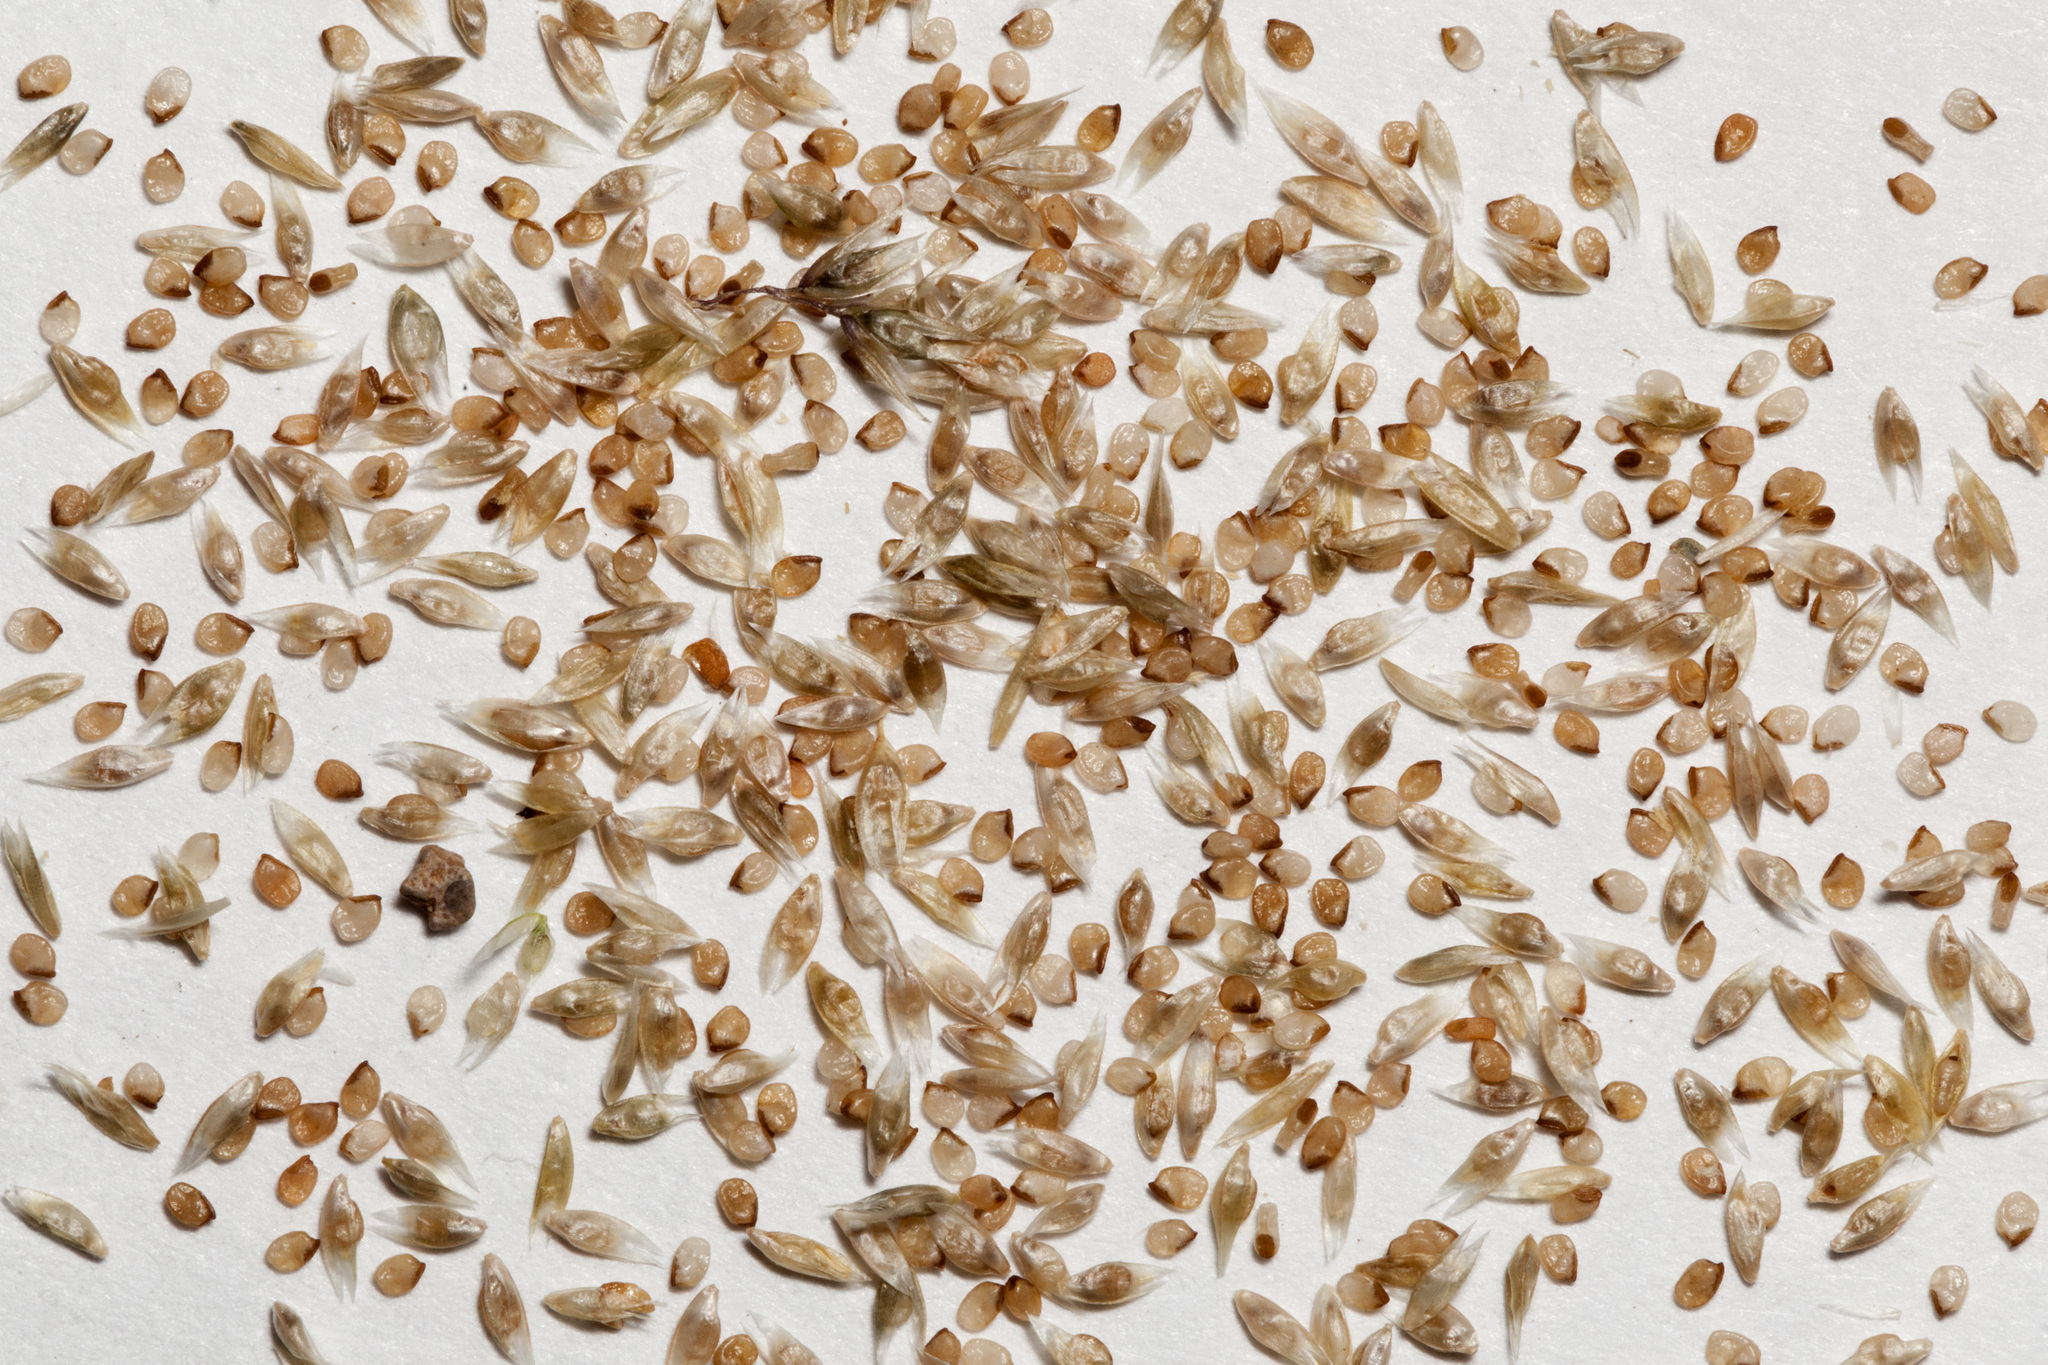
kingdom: Plantae
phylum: Tracheophyta
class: Liliopsida
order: Poales
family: Poaceae
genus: Sporobolus
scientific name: Sporobolus flexuosus
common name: Mesa dropseed
